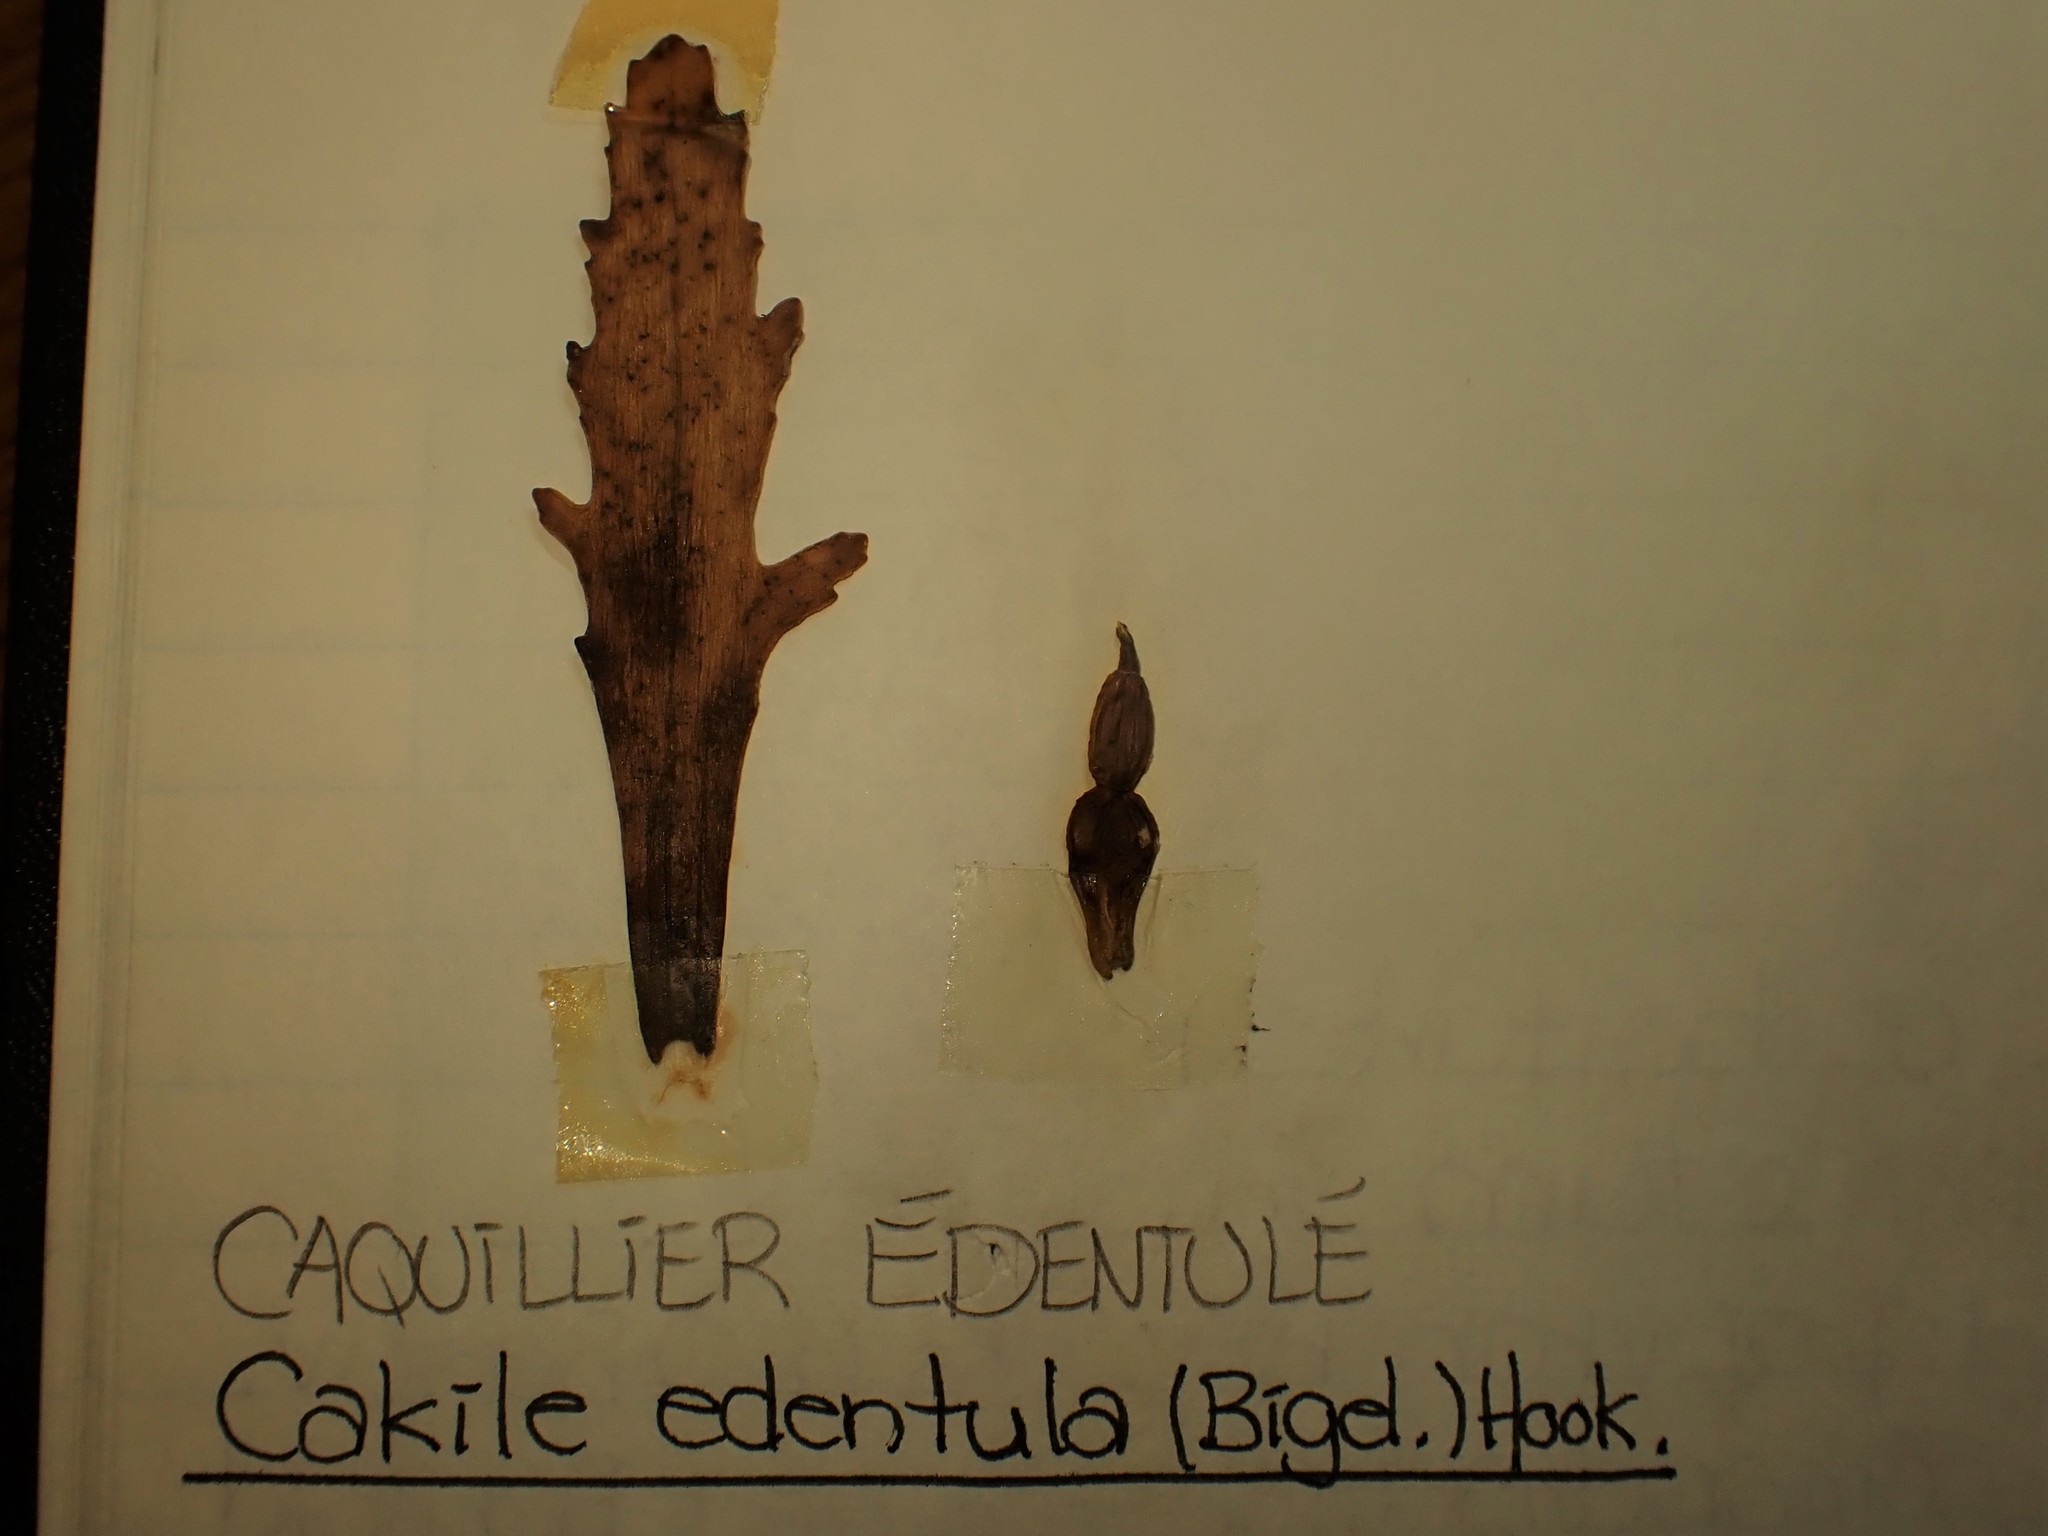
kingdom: Plantae
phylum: Tracheophyta
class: Magnoliopsida
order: Brassicales
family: Brassicaceae
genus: Cakile
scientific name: Cakile edentula
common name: American sea rocket
